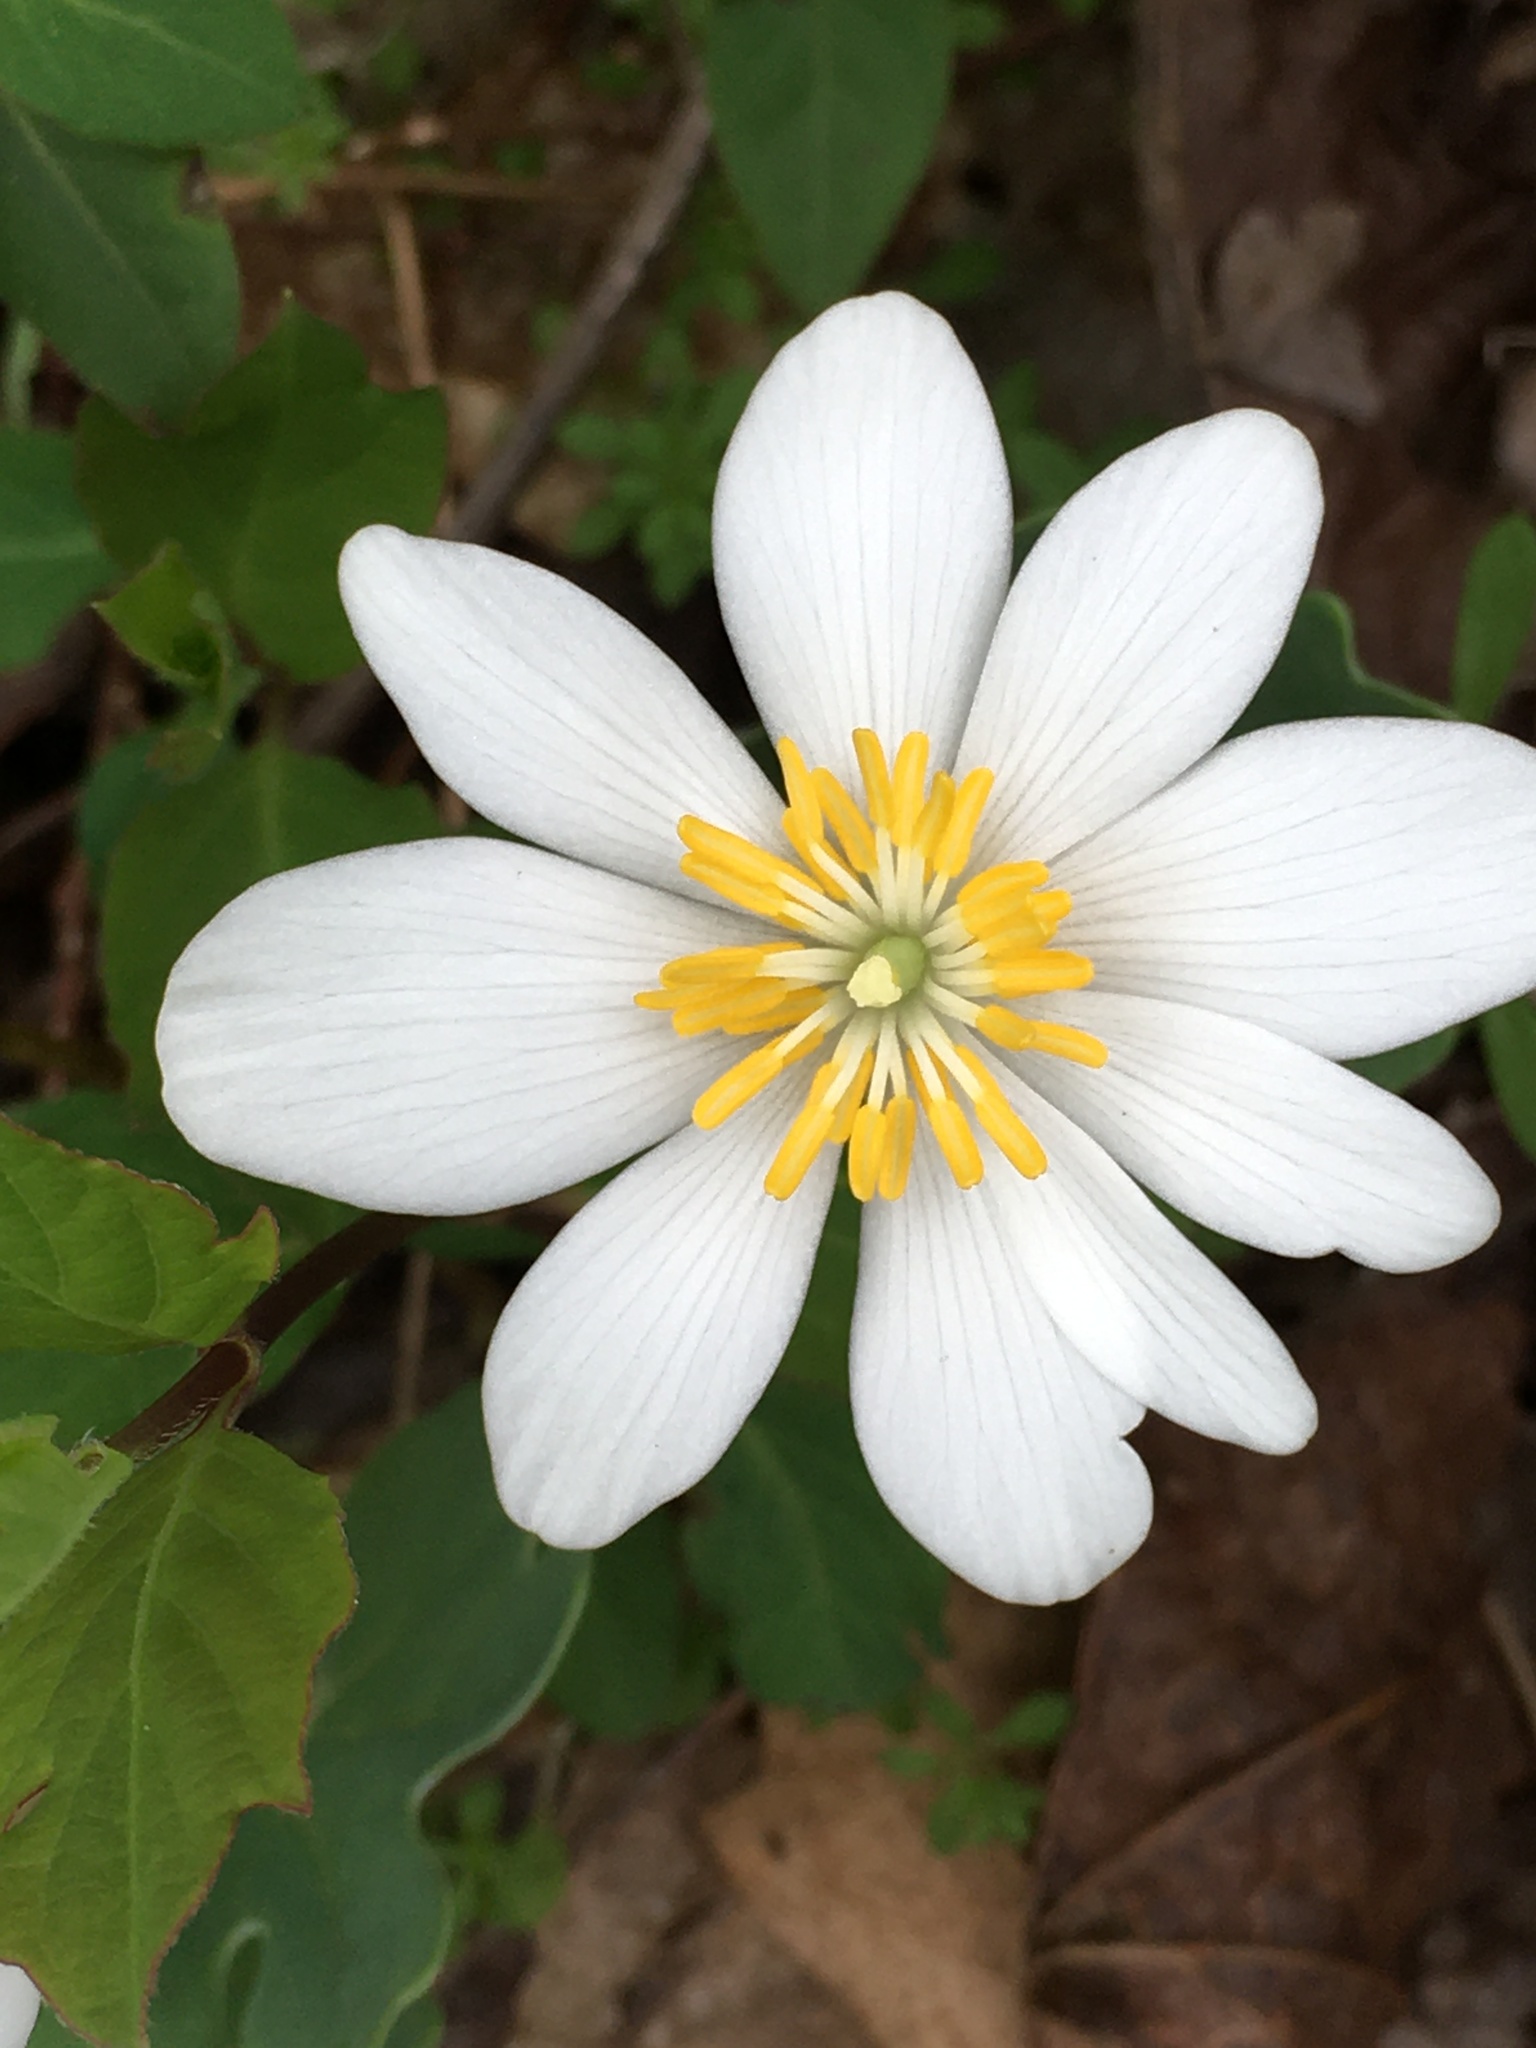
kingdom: Plantae
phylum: Tracheophyta
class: Magnoliopsida
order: Ranunculales
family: Papaveraceae
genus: Sanguinaria
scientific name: Sanguinaria canadensis
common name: Bloodroot
